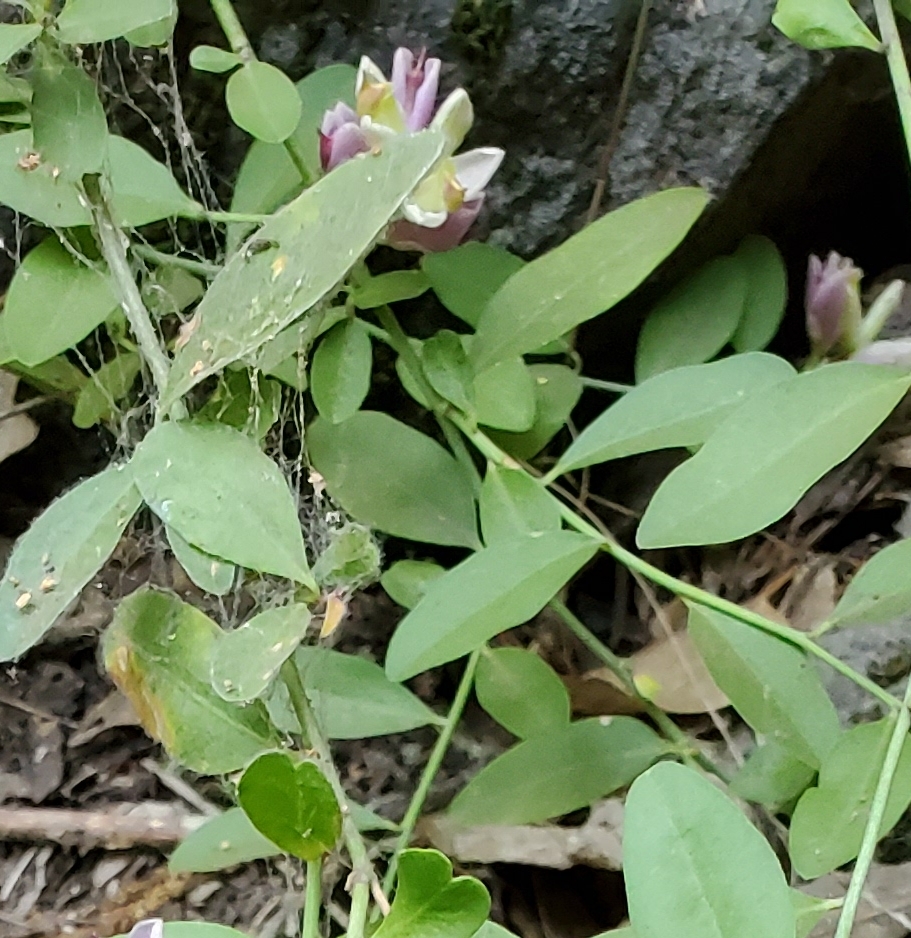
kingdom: Plantae
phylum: Tracheophyta
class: Magnoliopsida
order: Fabales
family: Polygalaceae
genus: Rhinotropis
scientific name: Rhinotropis cornuta
